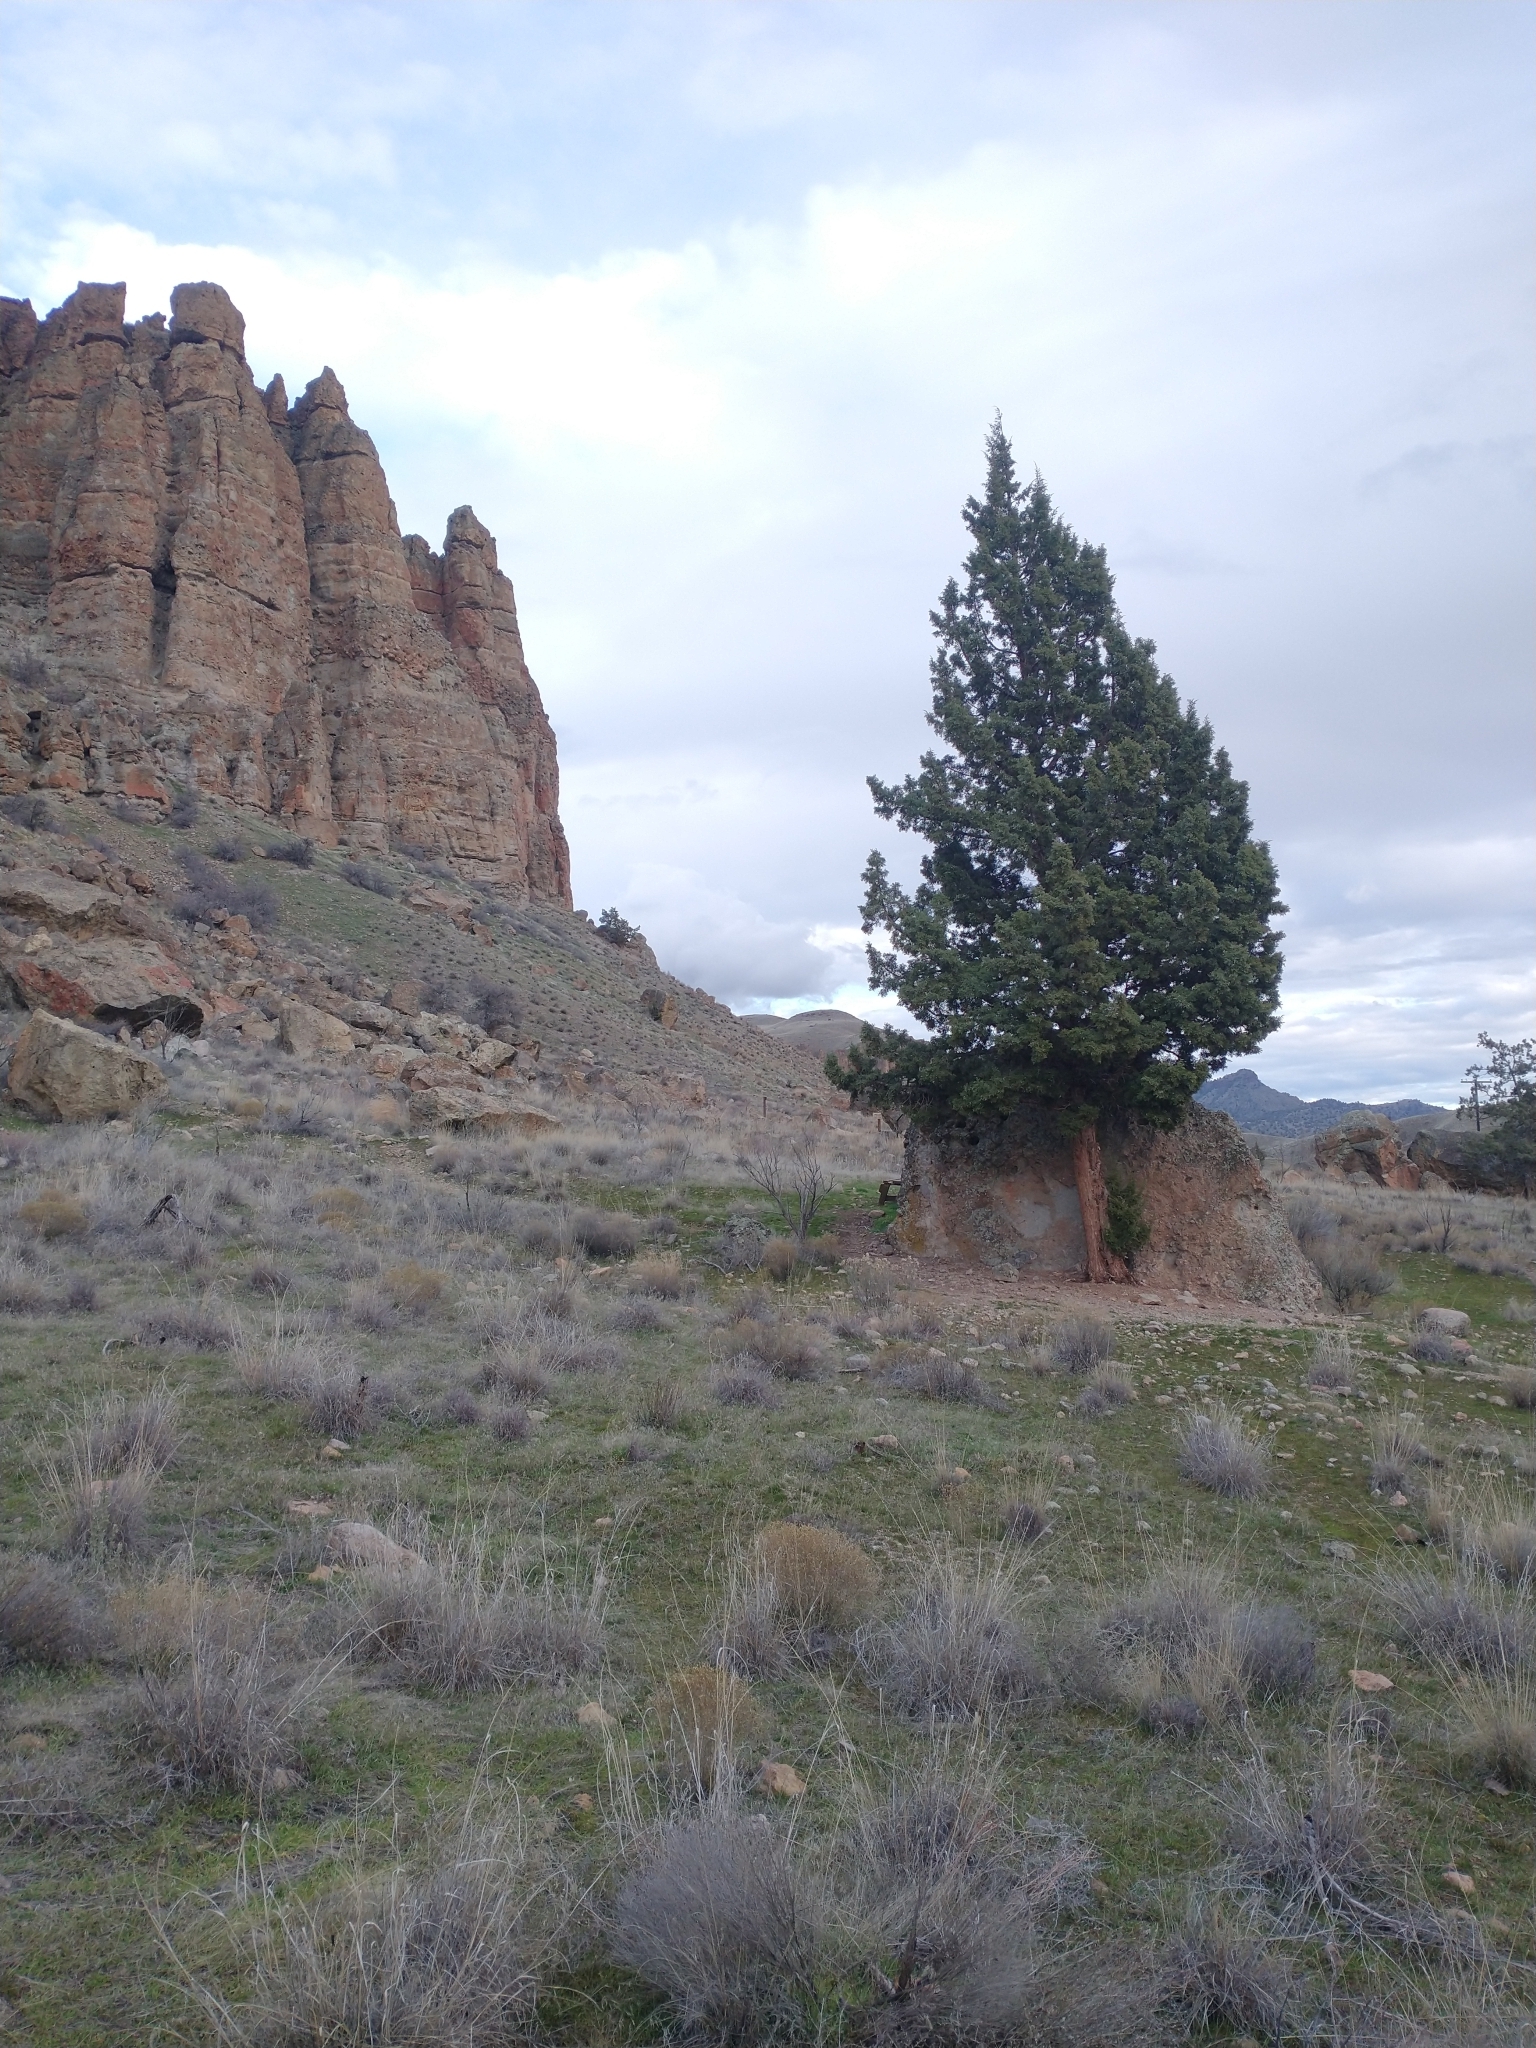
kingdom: Plantae
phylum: Tracheophyta
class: Pinopsida
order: Pinales
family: Cupressaceae
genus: Juniperus
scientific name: Juniperus occidentalis
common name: Western juniper
